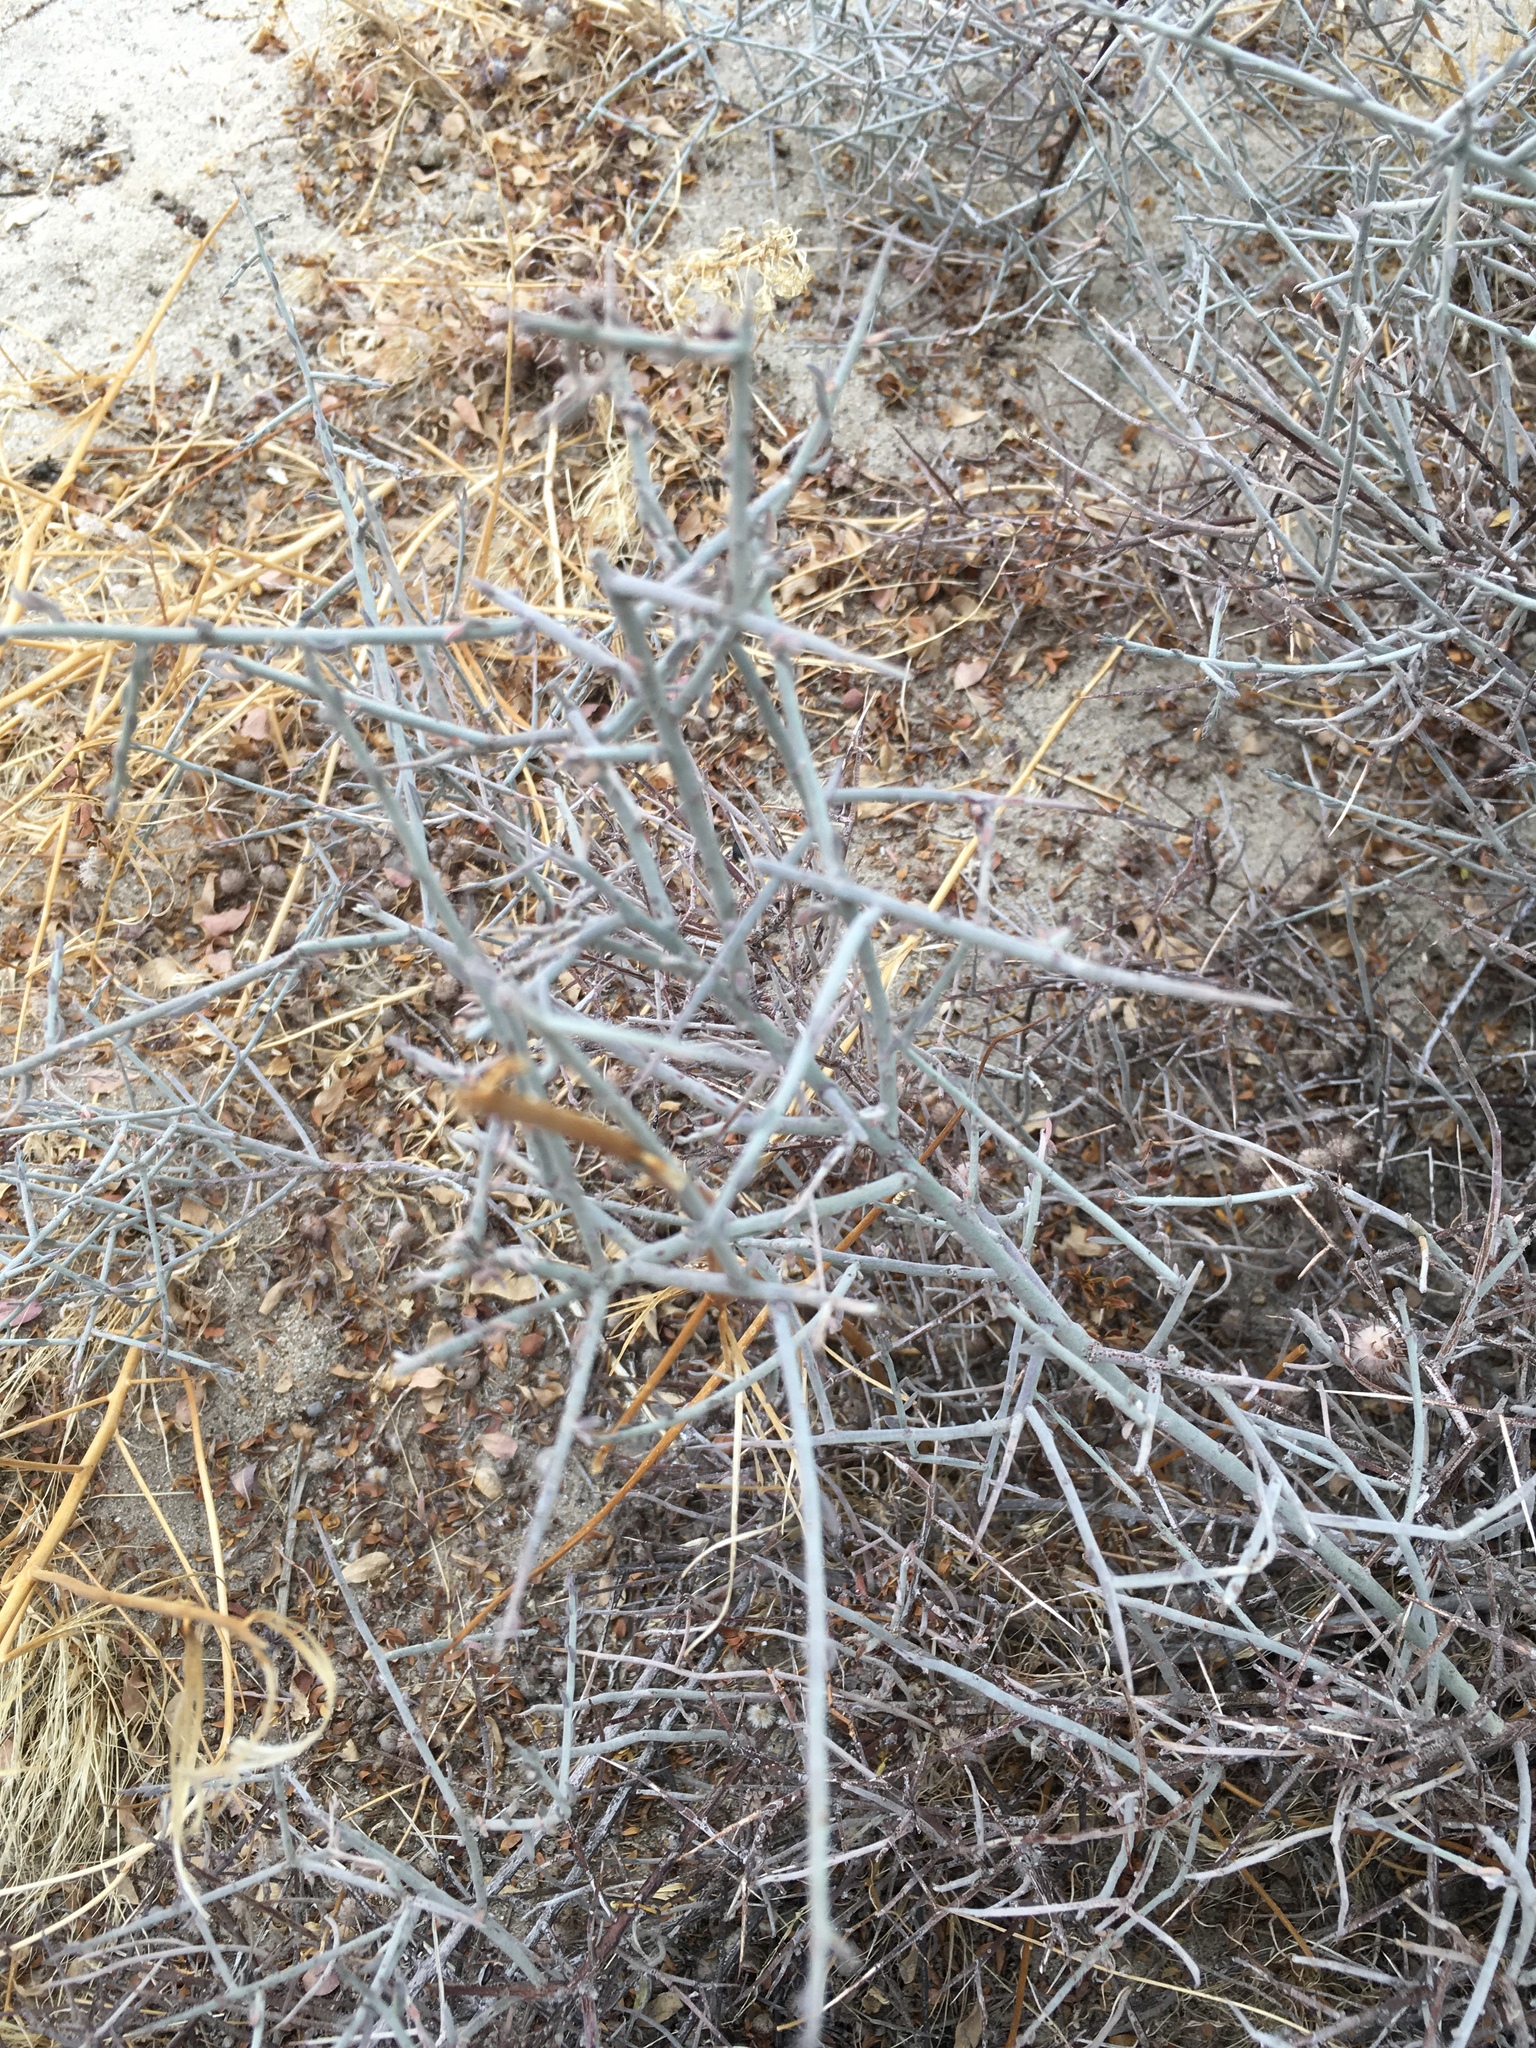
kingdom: Plantae
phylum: Tracheophyta
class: Magnoliopsida
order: Zygophyllales
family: Krameriaceae
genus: Krameria
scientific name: Krameria bicolor
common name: White ratany
